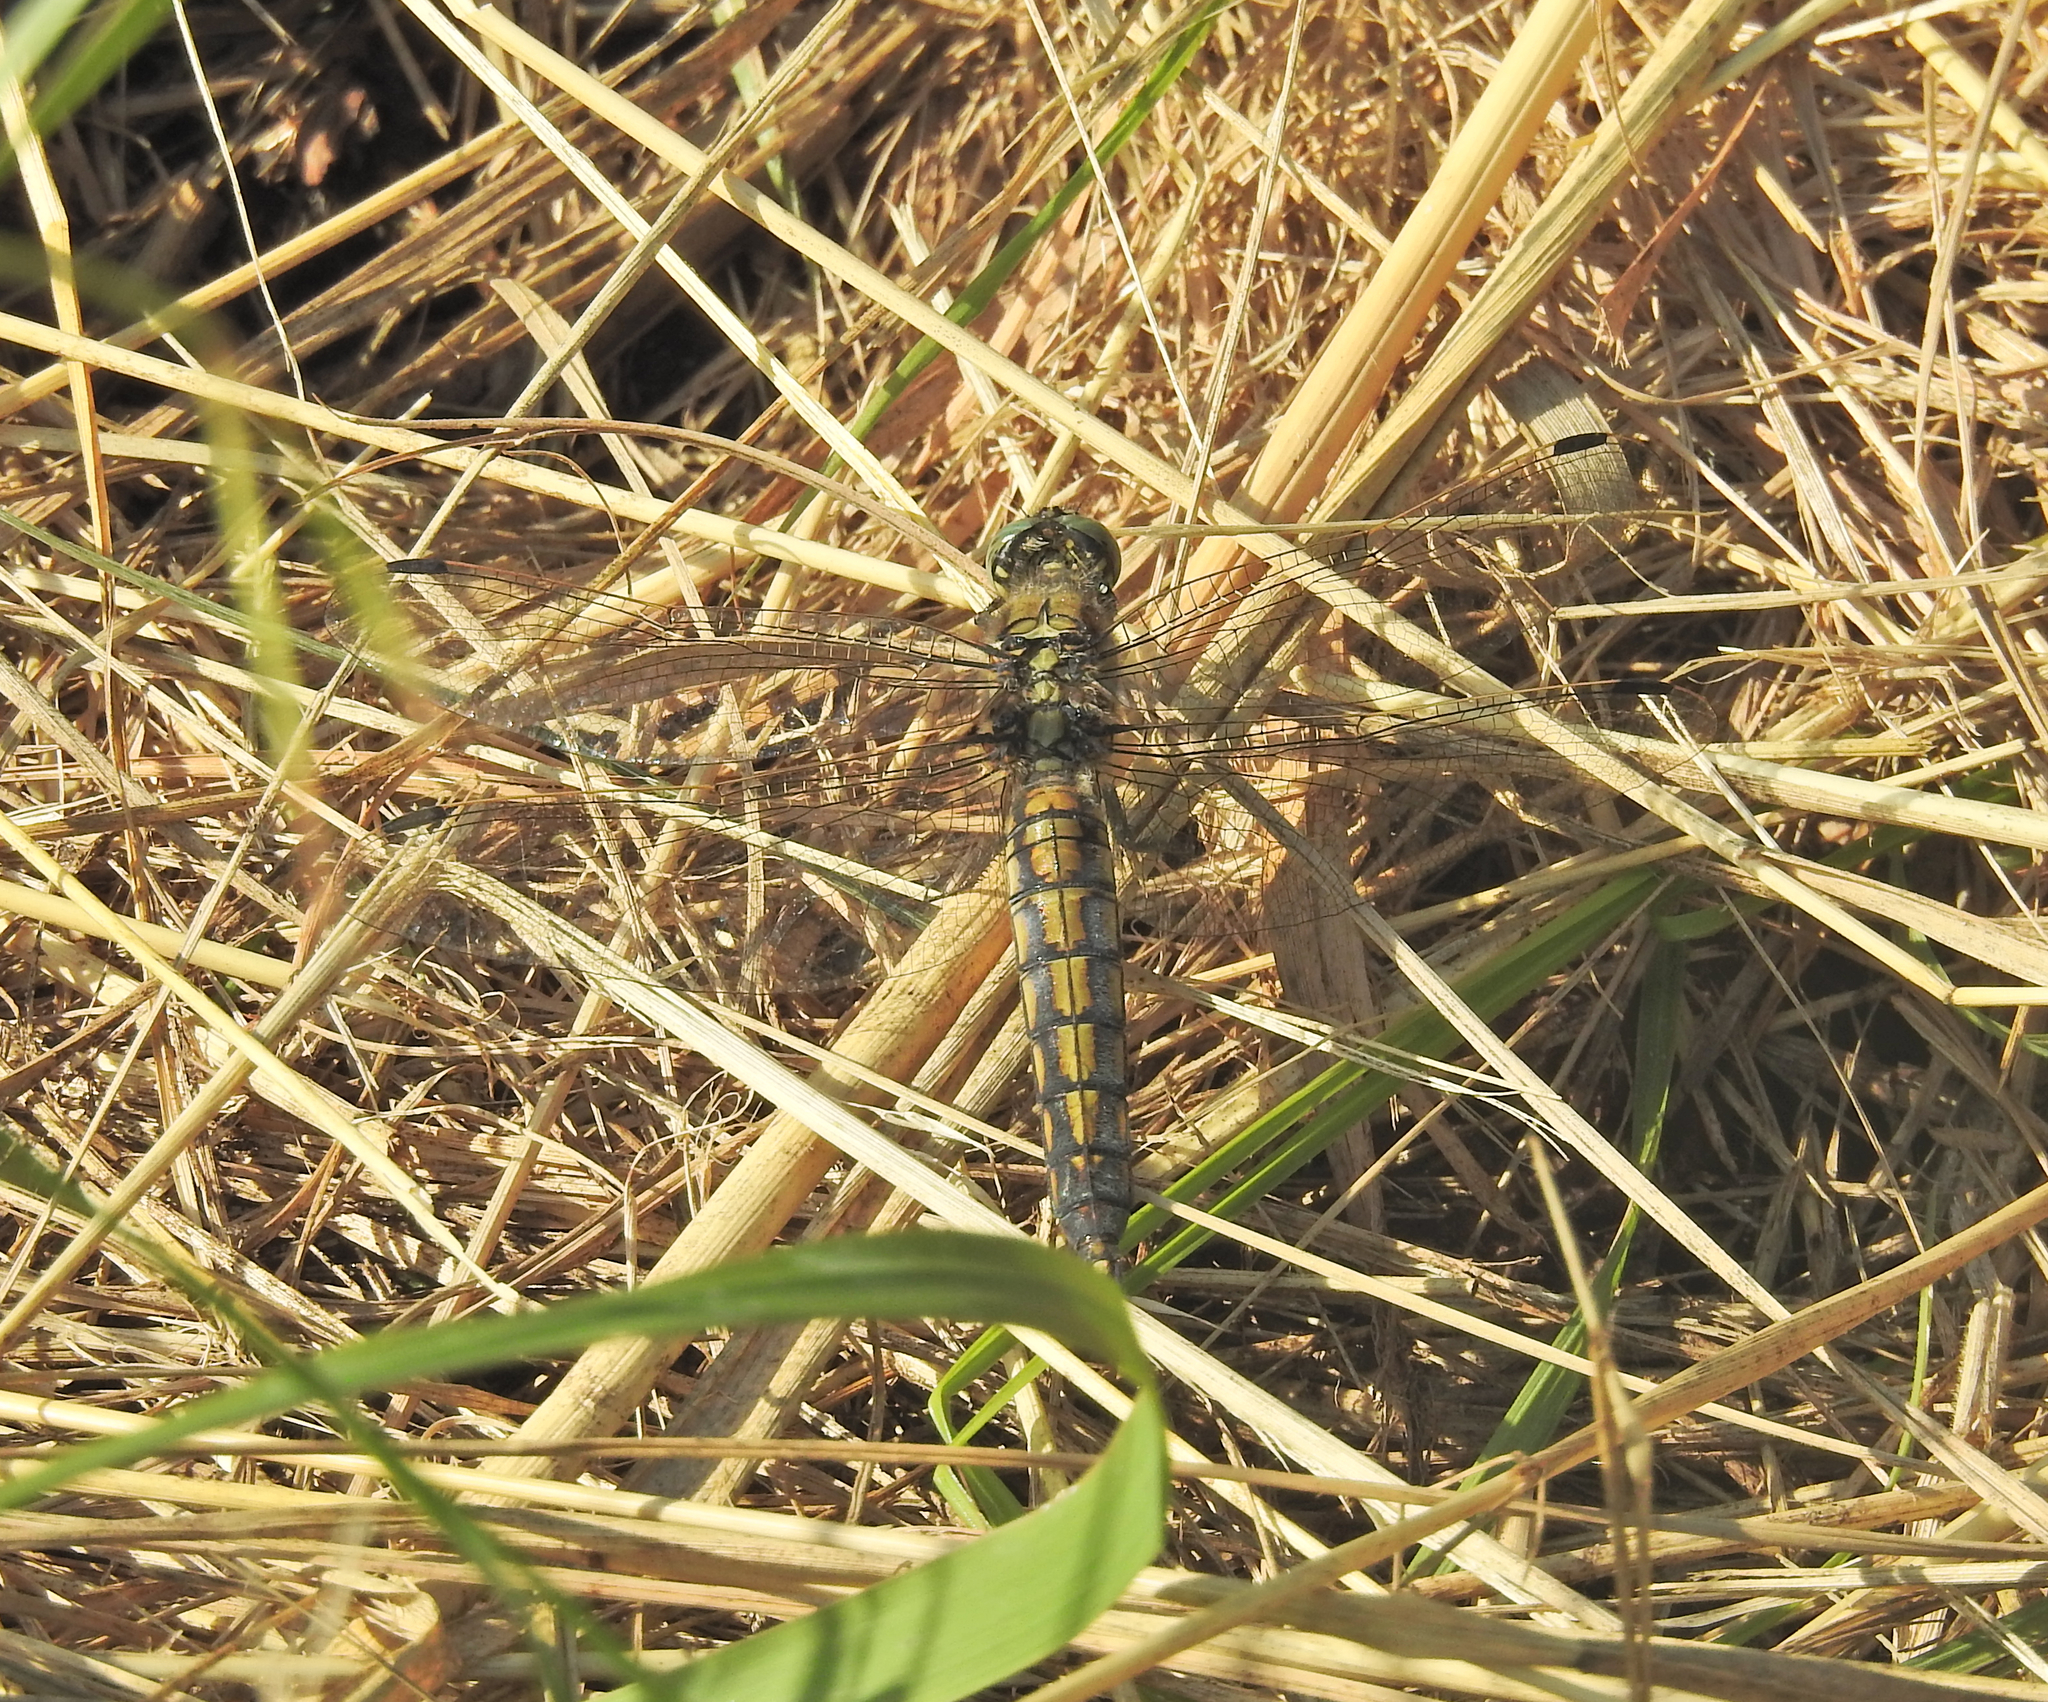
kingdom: Animalia
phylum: Arthropoda
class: Insecta
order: Odonata
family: Libellulidae
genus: Orthetrum
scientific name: Orthetrum cancellatum
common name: Black-tailed skimmer
